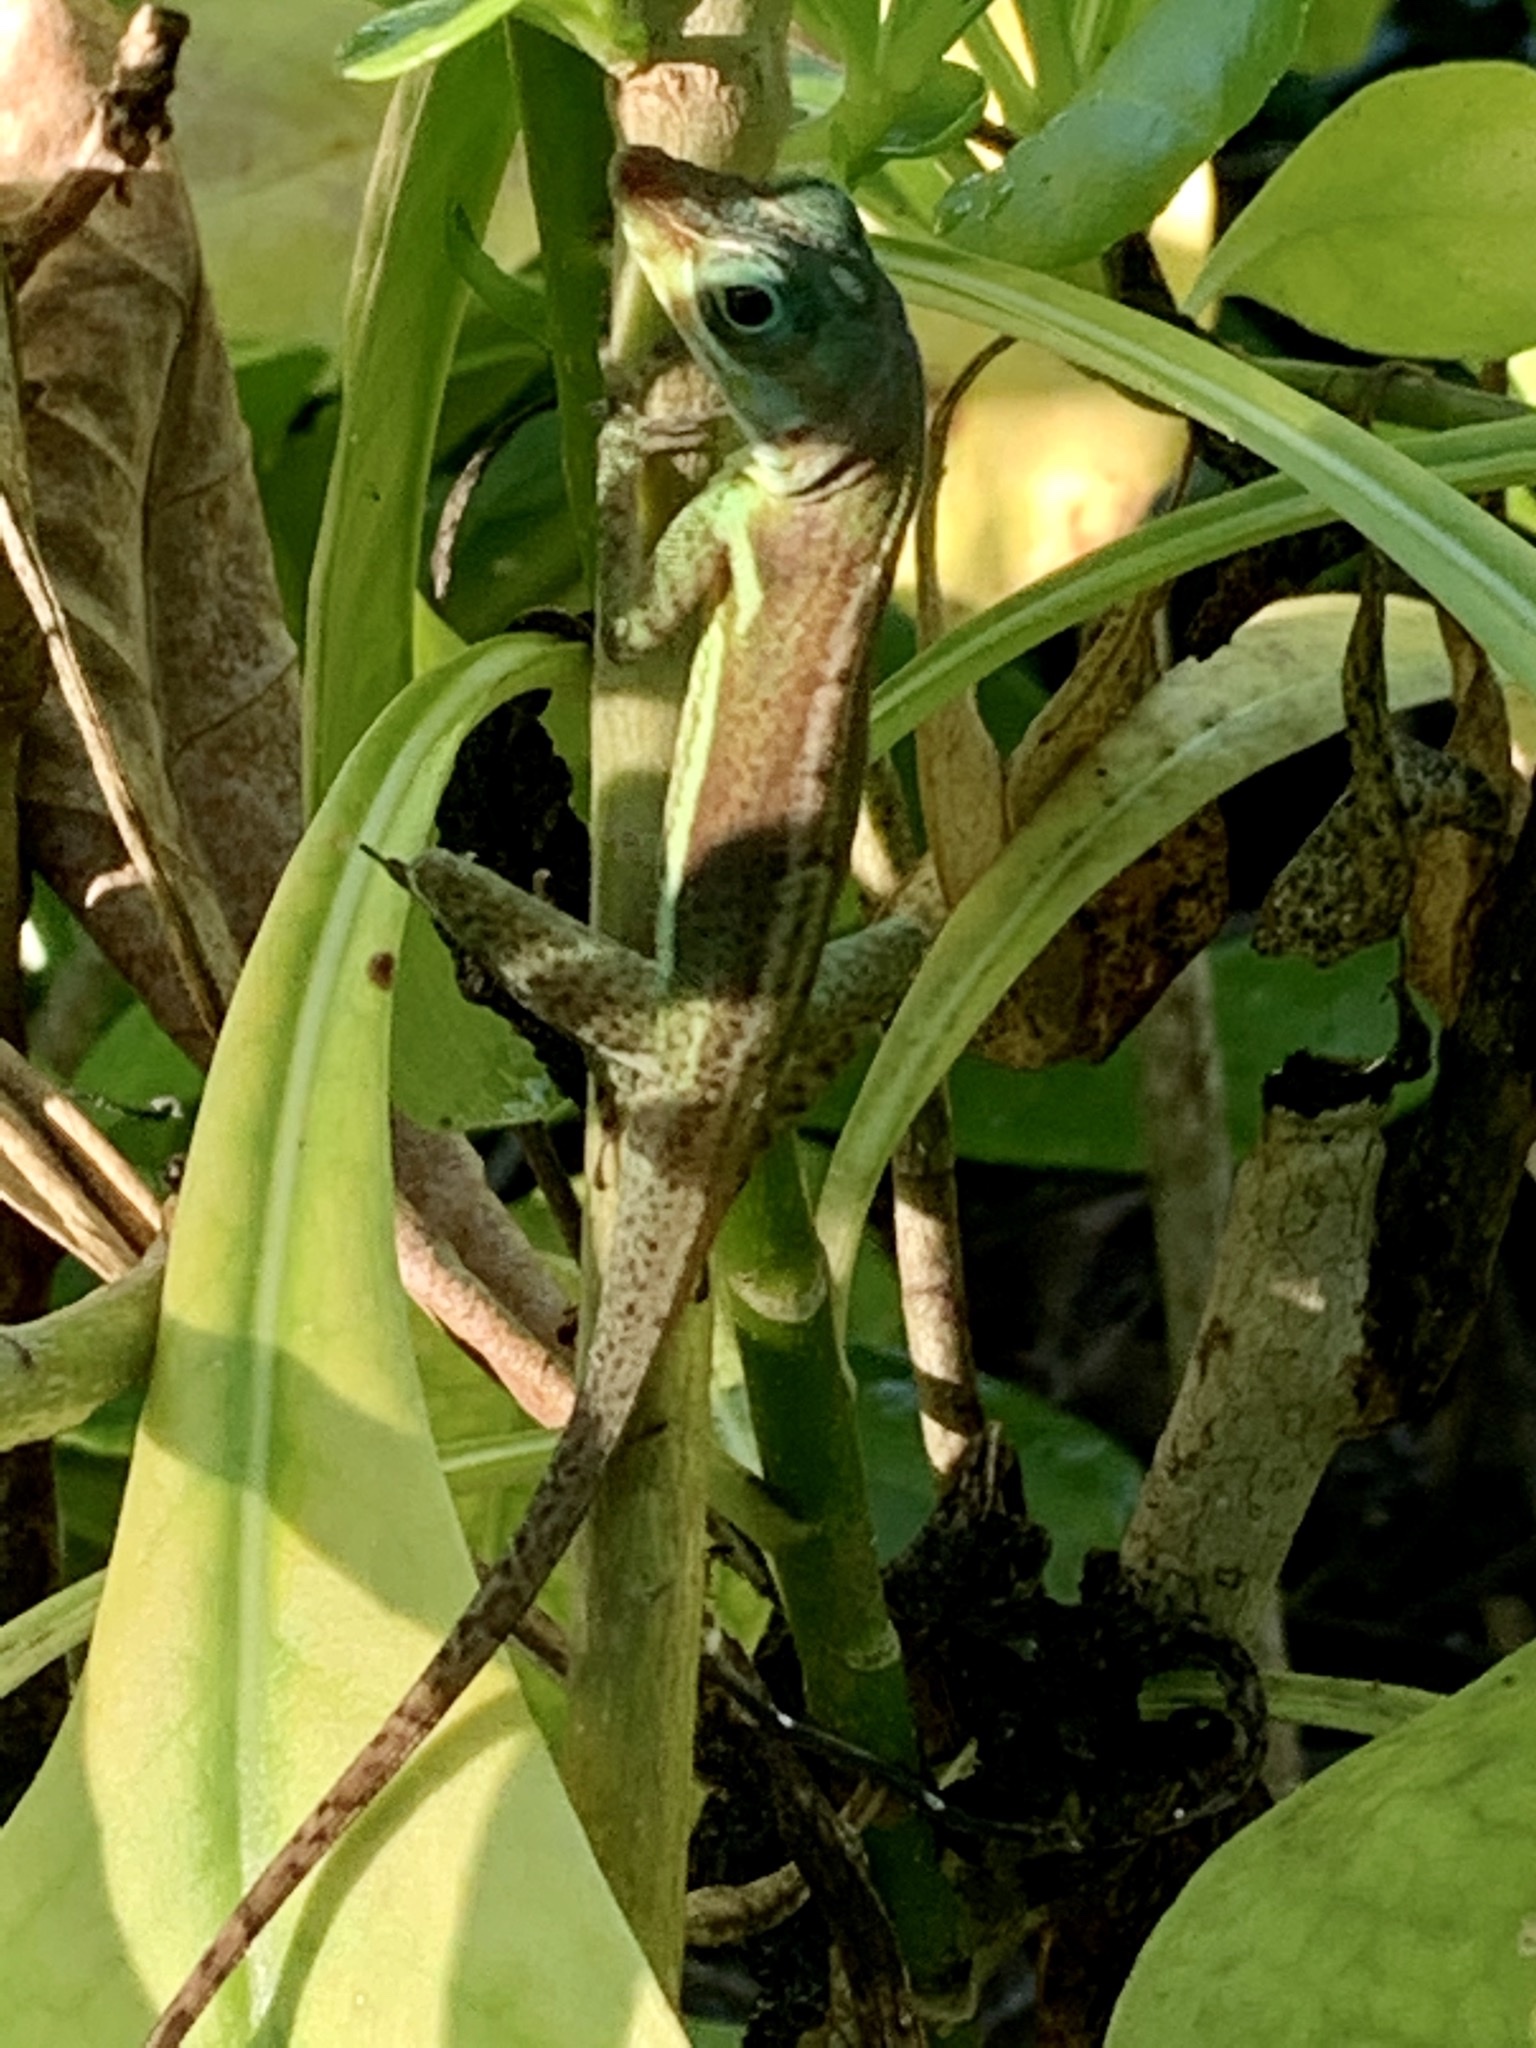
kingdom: Animalia
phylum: Chordata
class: Squamata
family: Dactyloidae
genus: Anolis
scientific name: Anolis richardii
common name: Grenada tree anole
